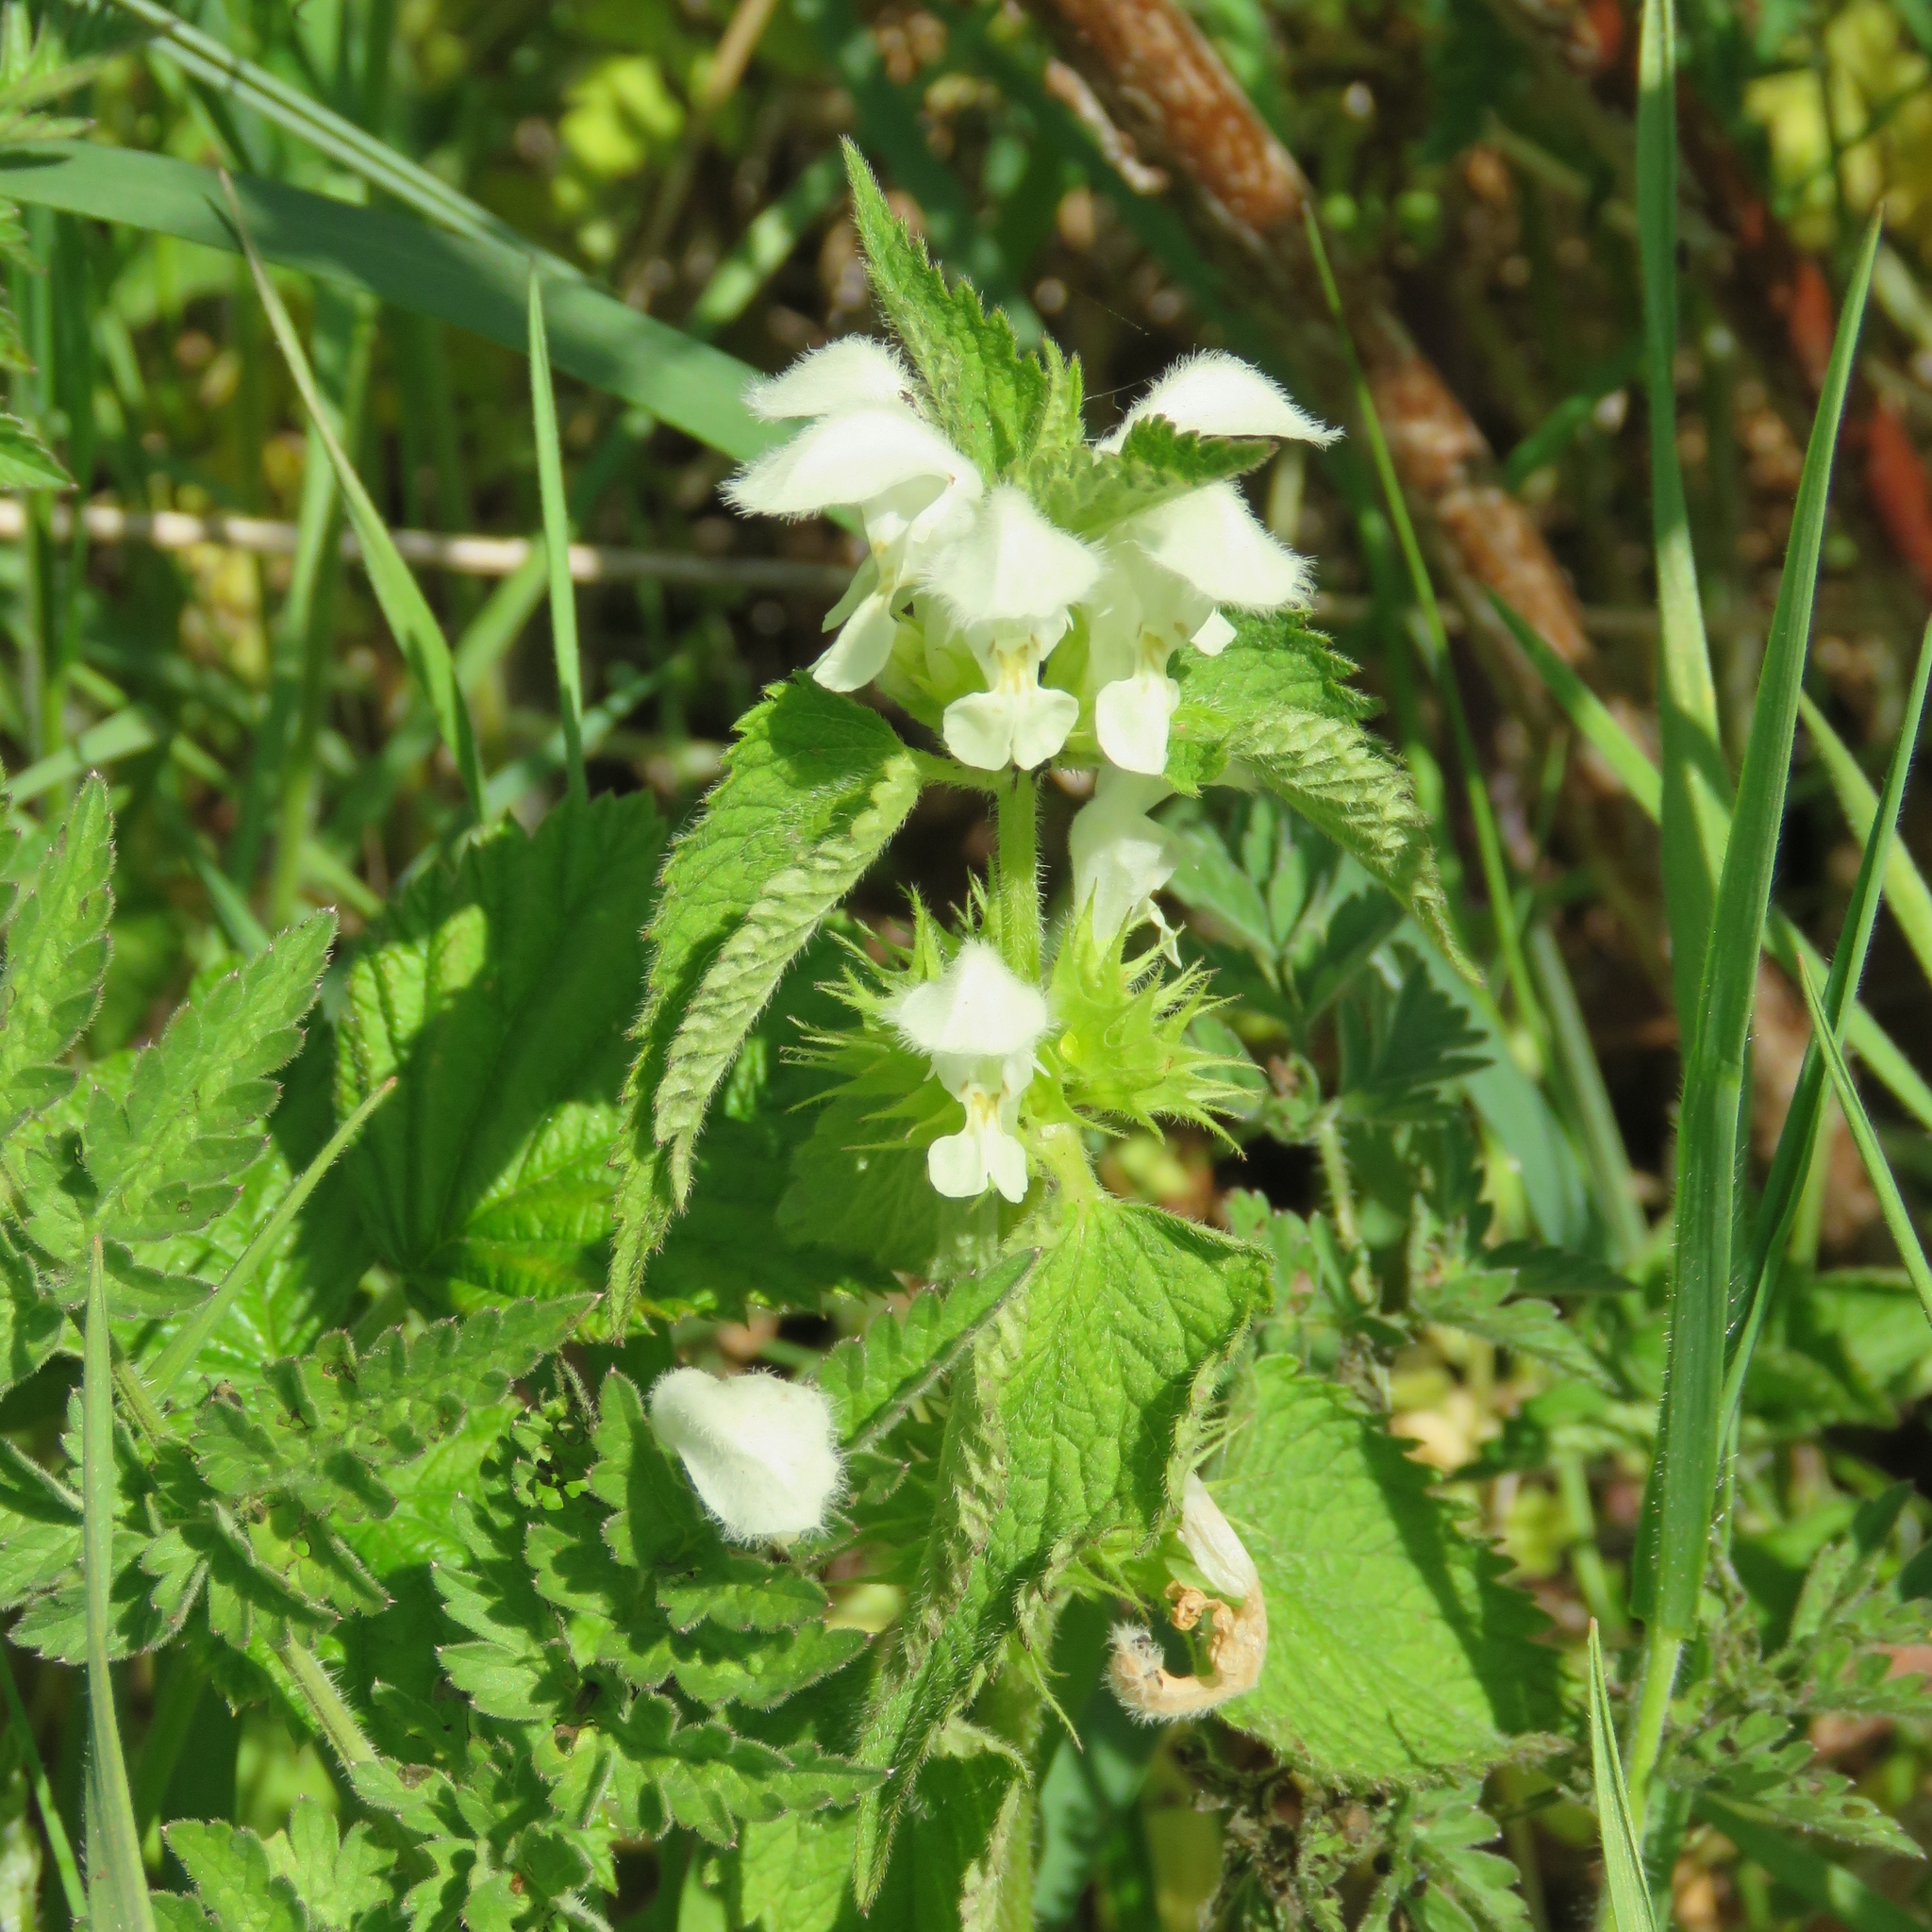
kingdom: Plantae
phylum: Tracheophyta
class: Magnoliopsida
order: Lamiales
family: Lamiaceae
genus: Lamium
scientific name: Lamium album
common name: White dead-nettle
